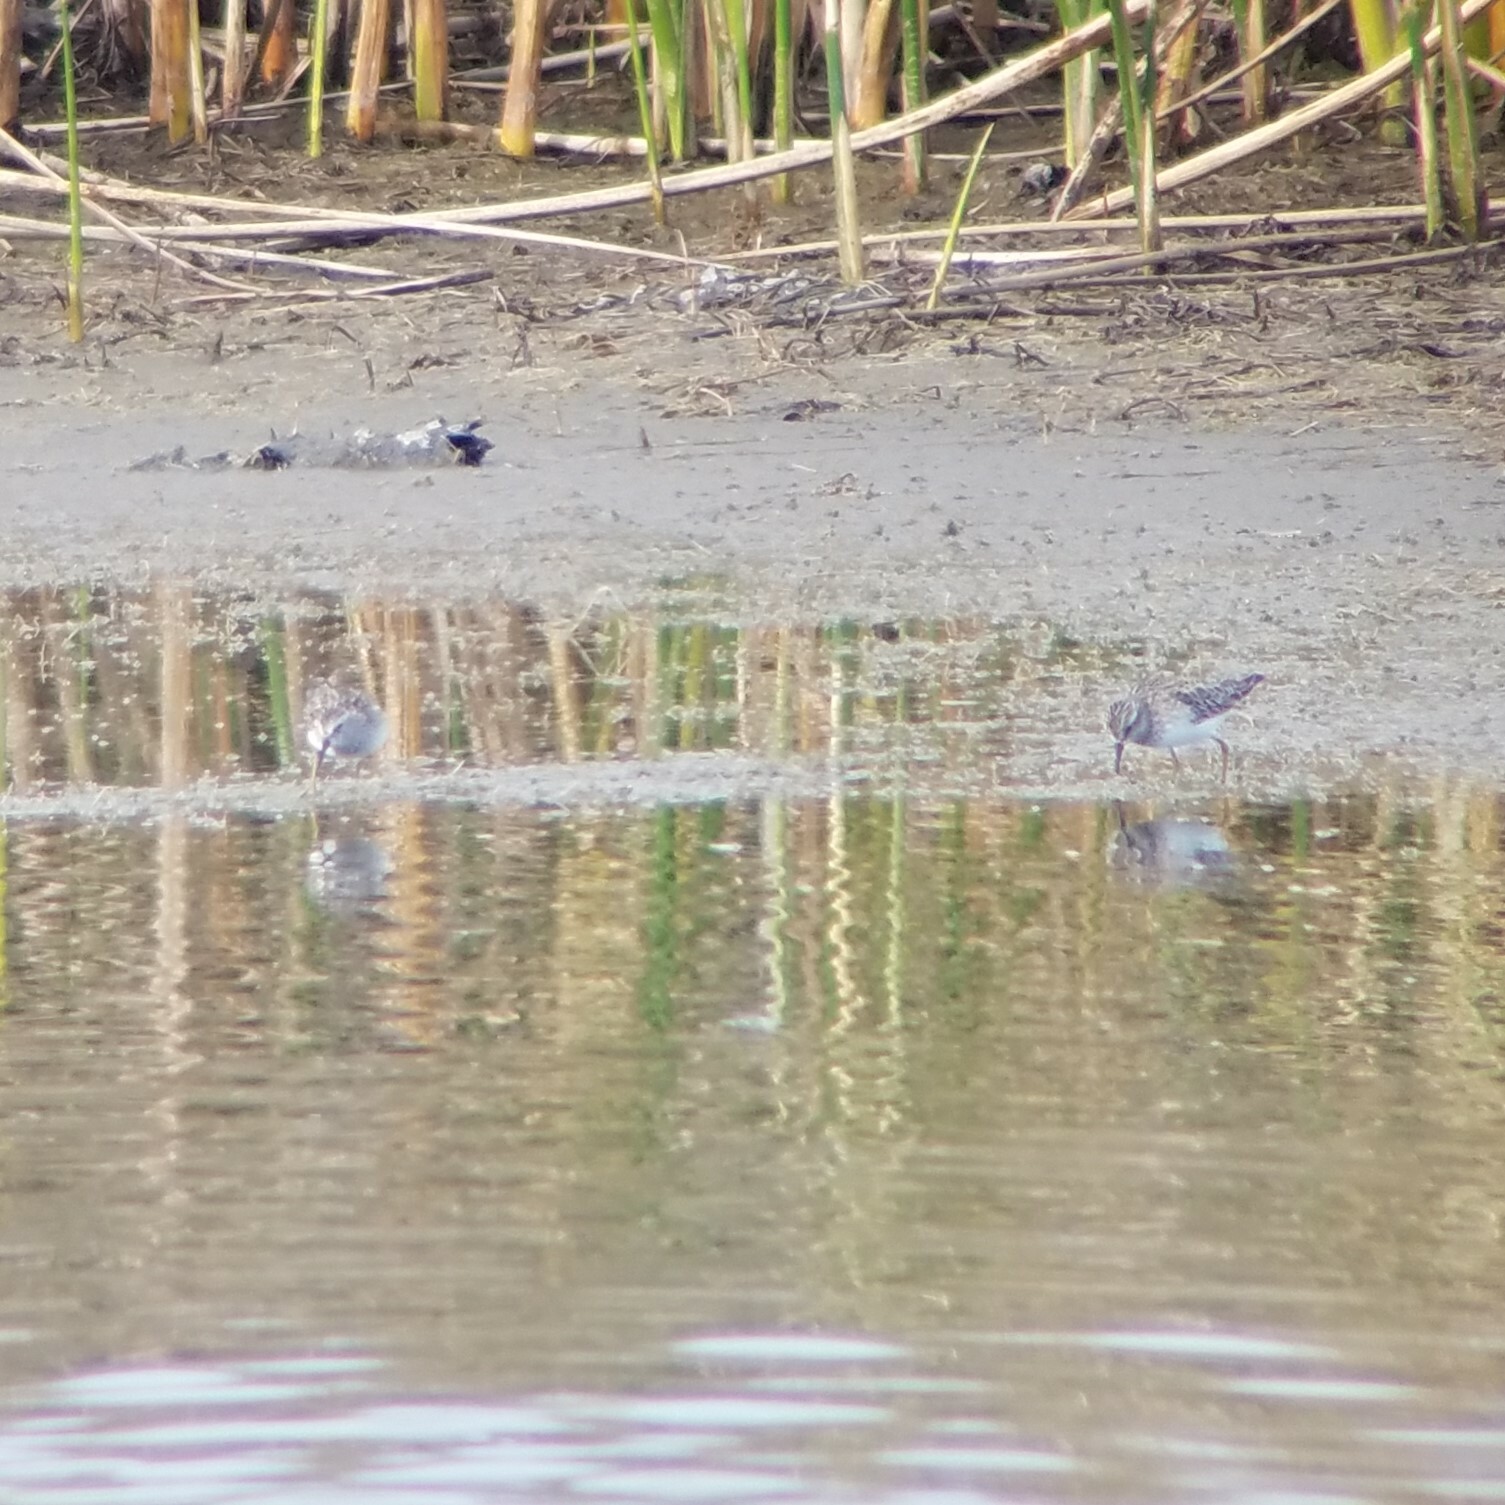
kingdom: Animalia
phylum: Chordata
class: Aves
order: Charadriiformes
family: Scolopacidae
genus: Calidris
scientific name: Calidris minutilla
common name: Least sandpiper
